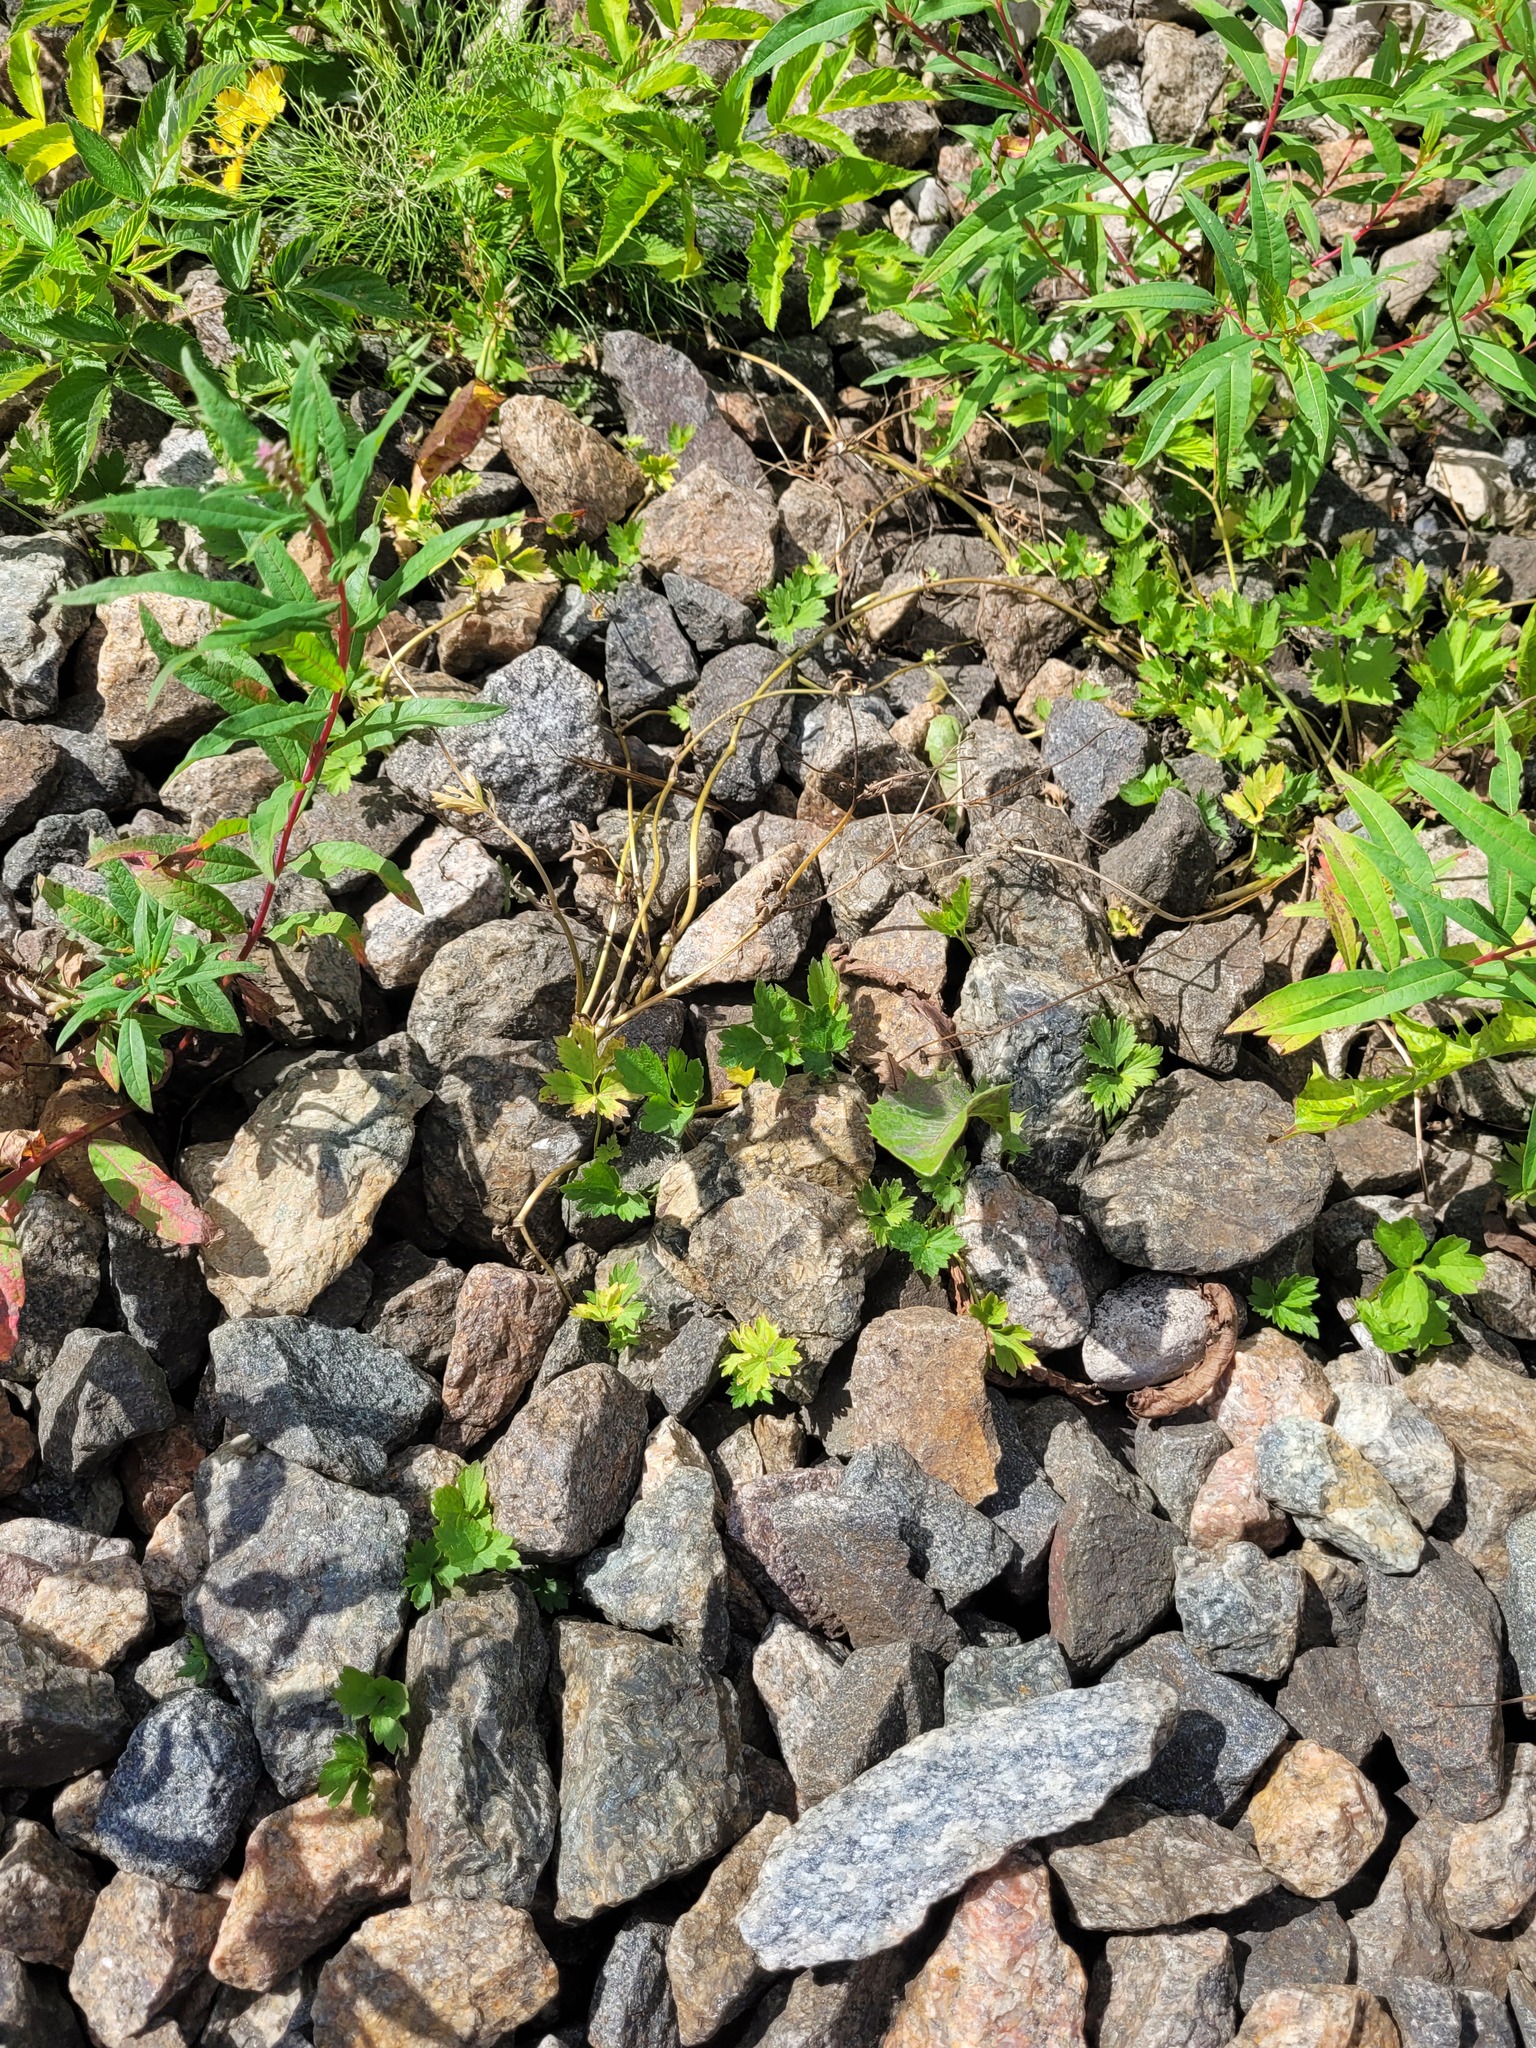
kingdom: Plantae
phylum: Tracheophyta
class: Magnoliopsida
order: Ranunculales
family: Ranunculaceae
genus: Ranunculus
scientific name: Ranunculus repens
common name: Creeping buttercup
